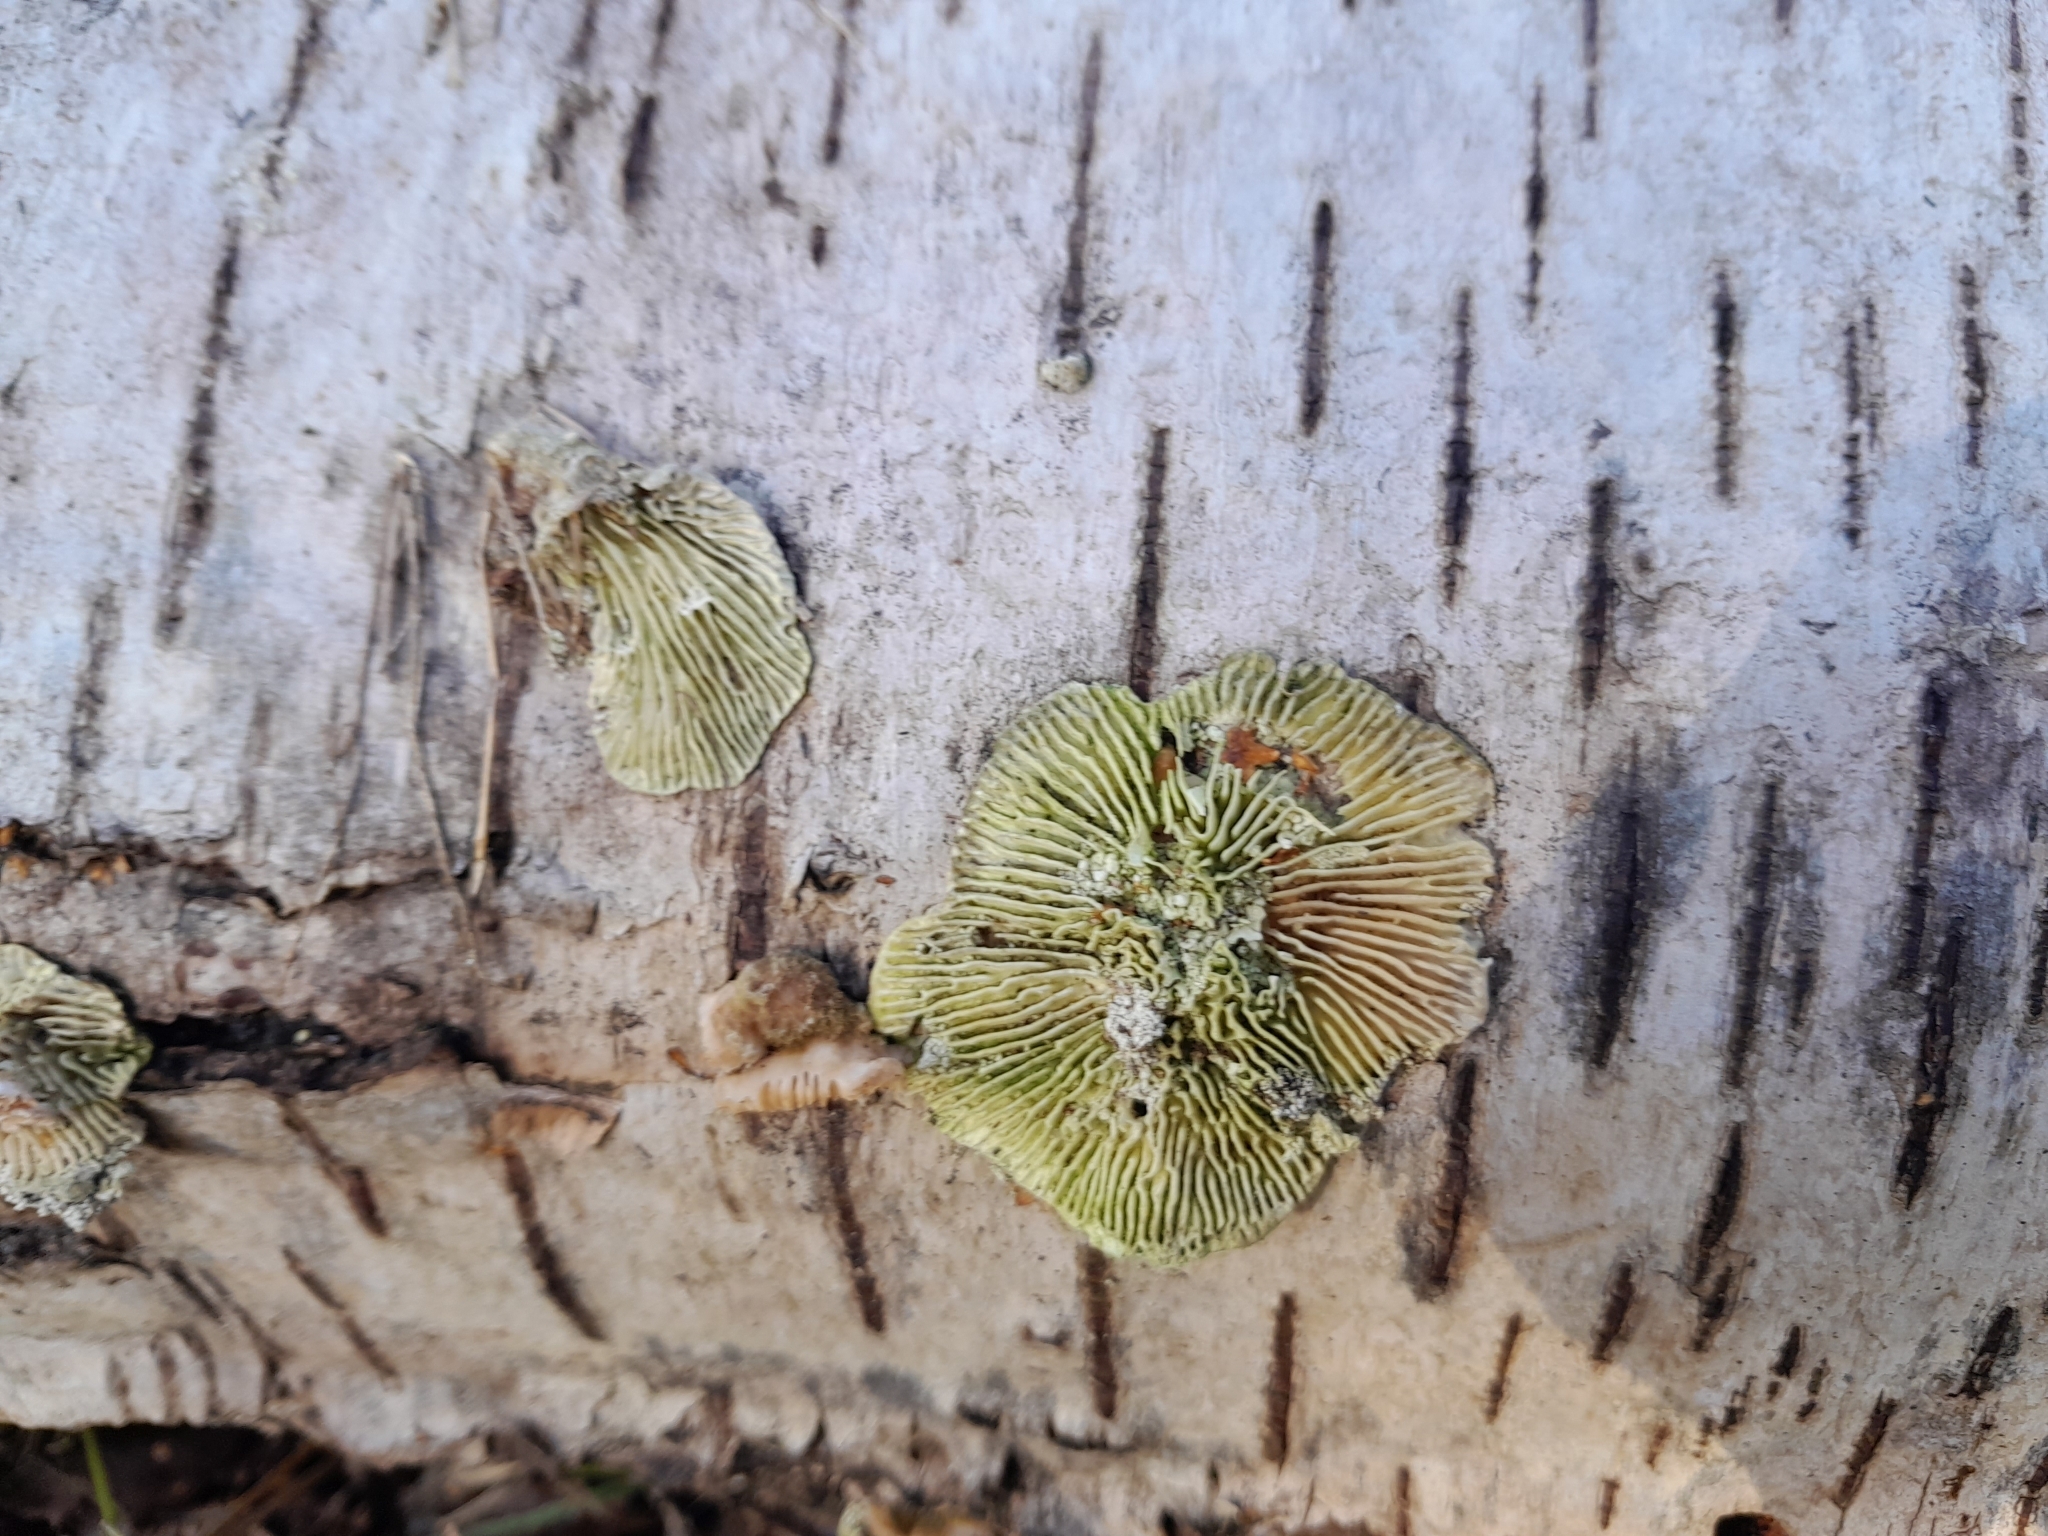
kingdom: Fungi
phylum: Basidiomycota
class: Agaricomycetes
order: Polyporales
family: Polyporaceae
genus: Lenzites
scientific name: Lenzites betulinus
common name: Birch mazegill
